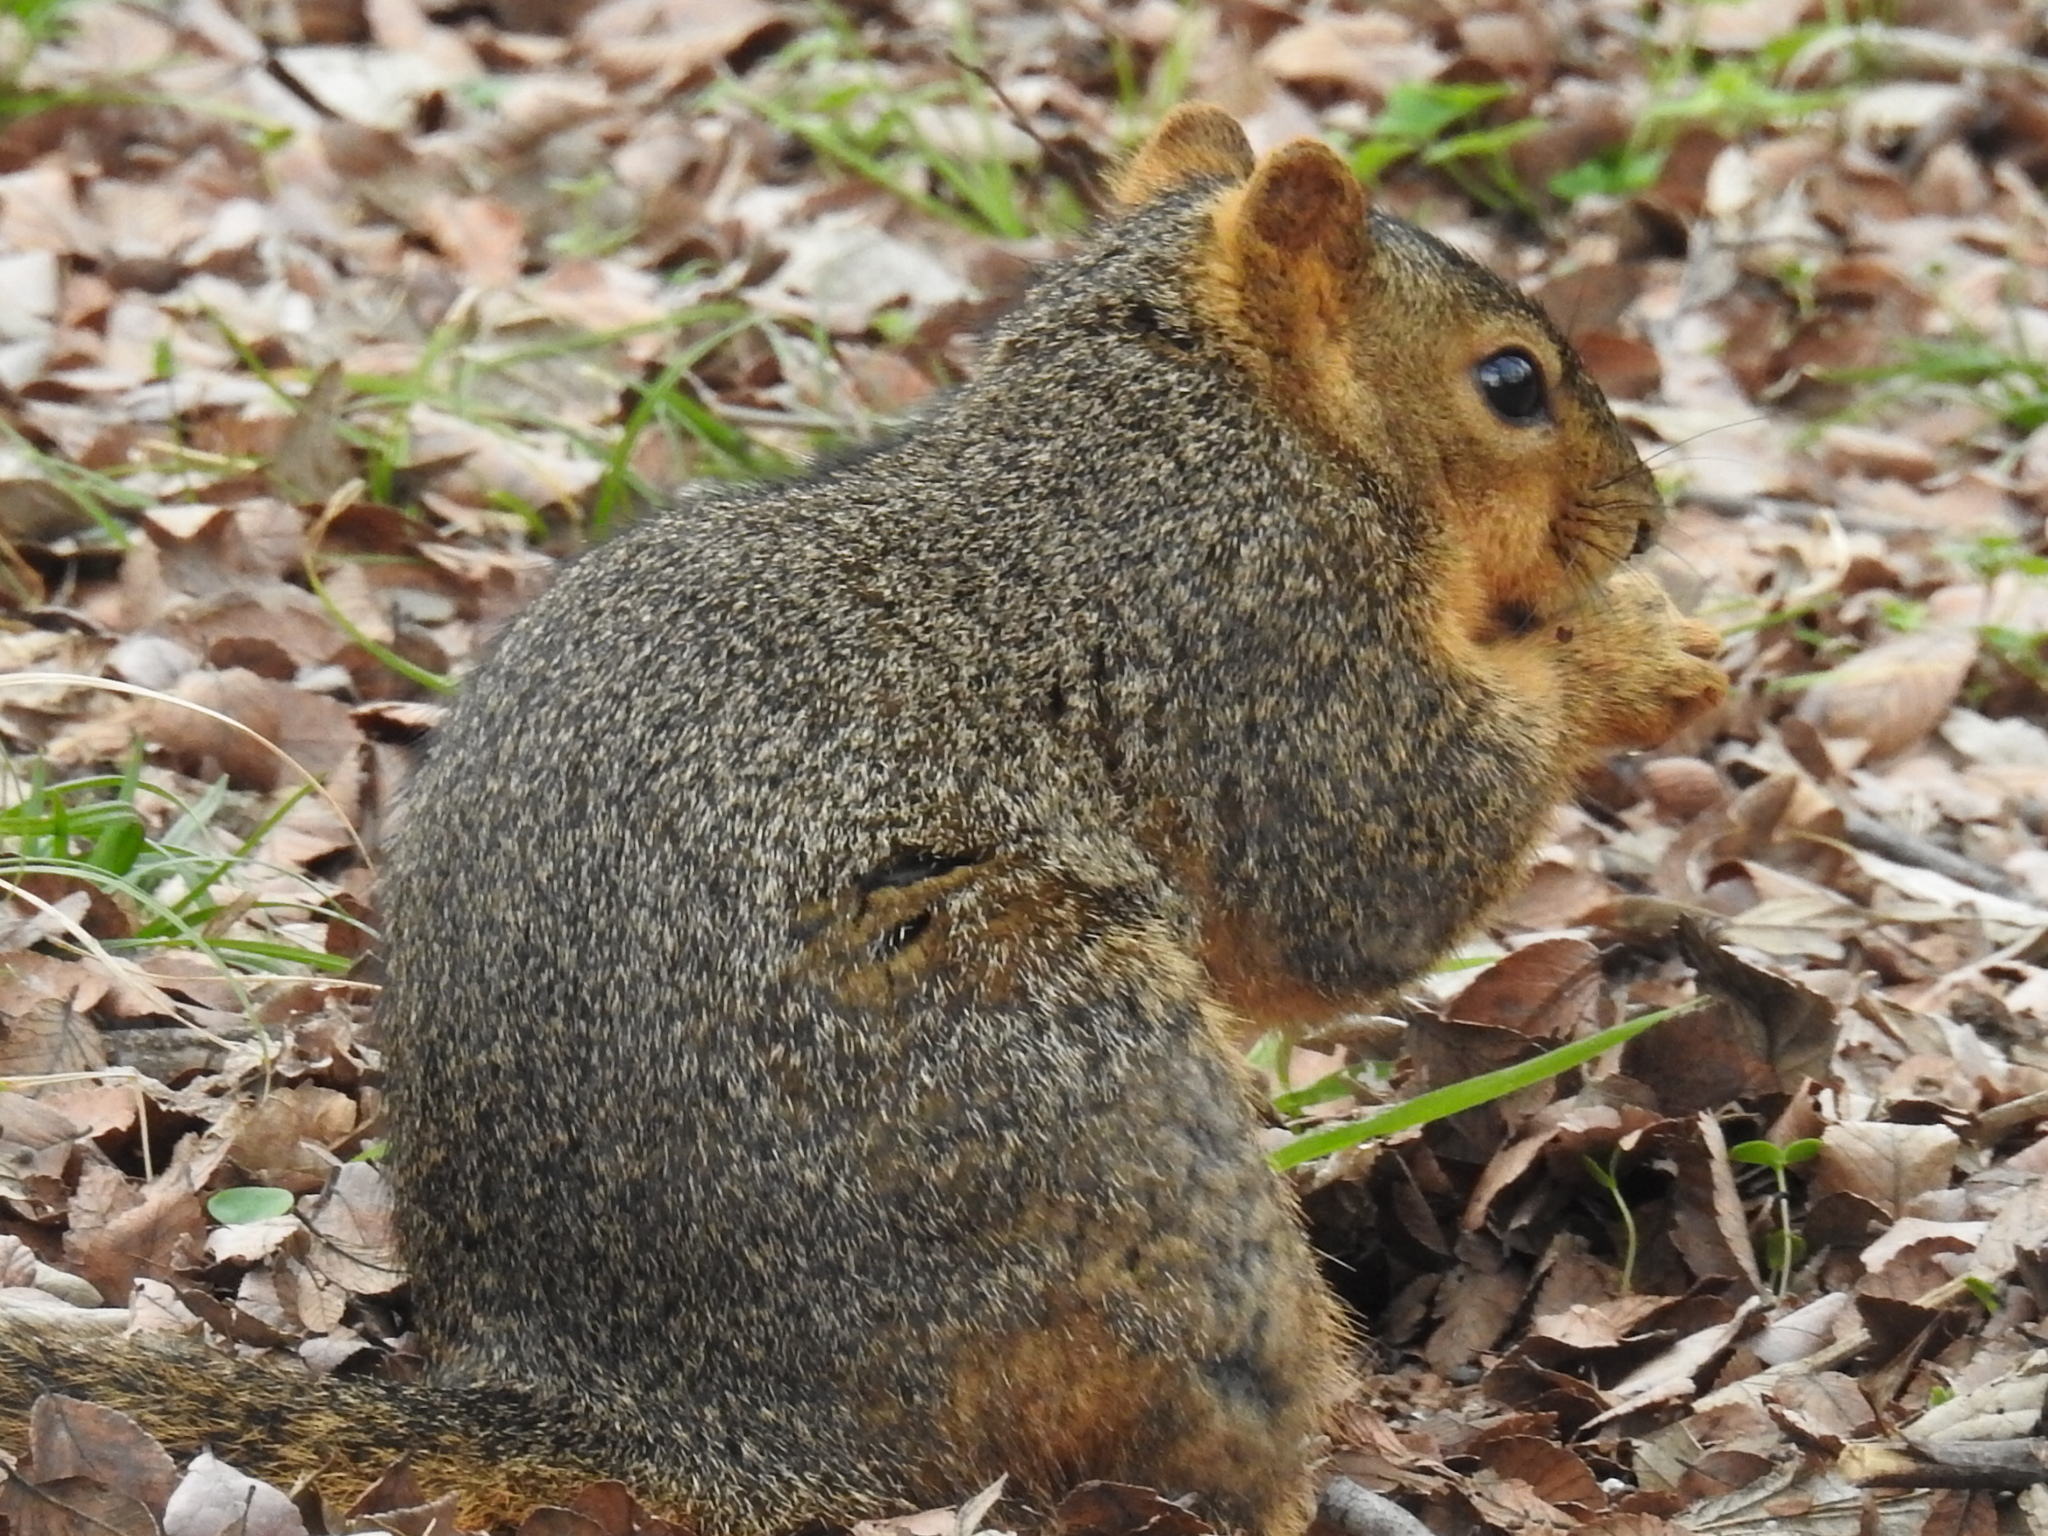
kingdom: Animalia
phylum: Chordata
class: Mammalia
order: Rodentia
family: Sciuridae
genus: Sciurus
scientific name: Sciurus niger
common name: Fox squirrel
